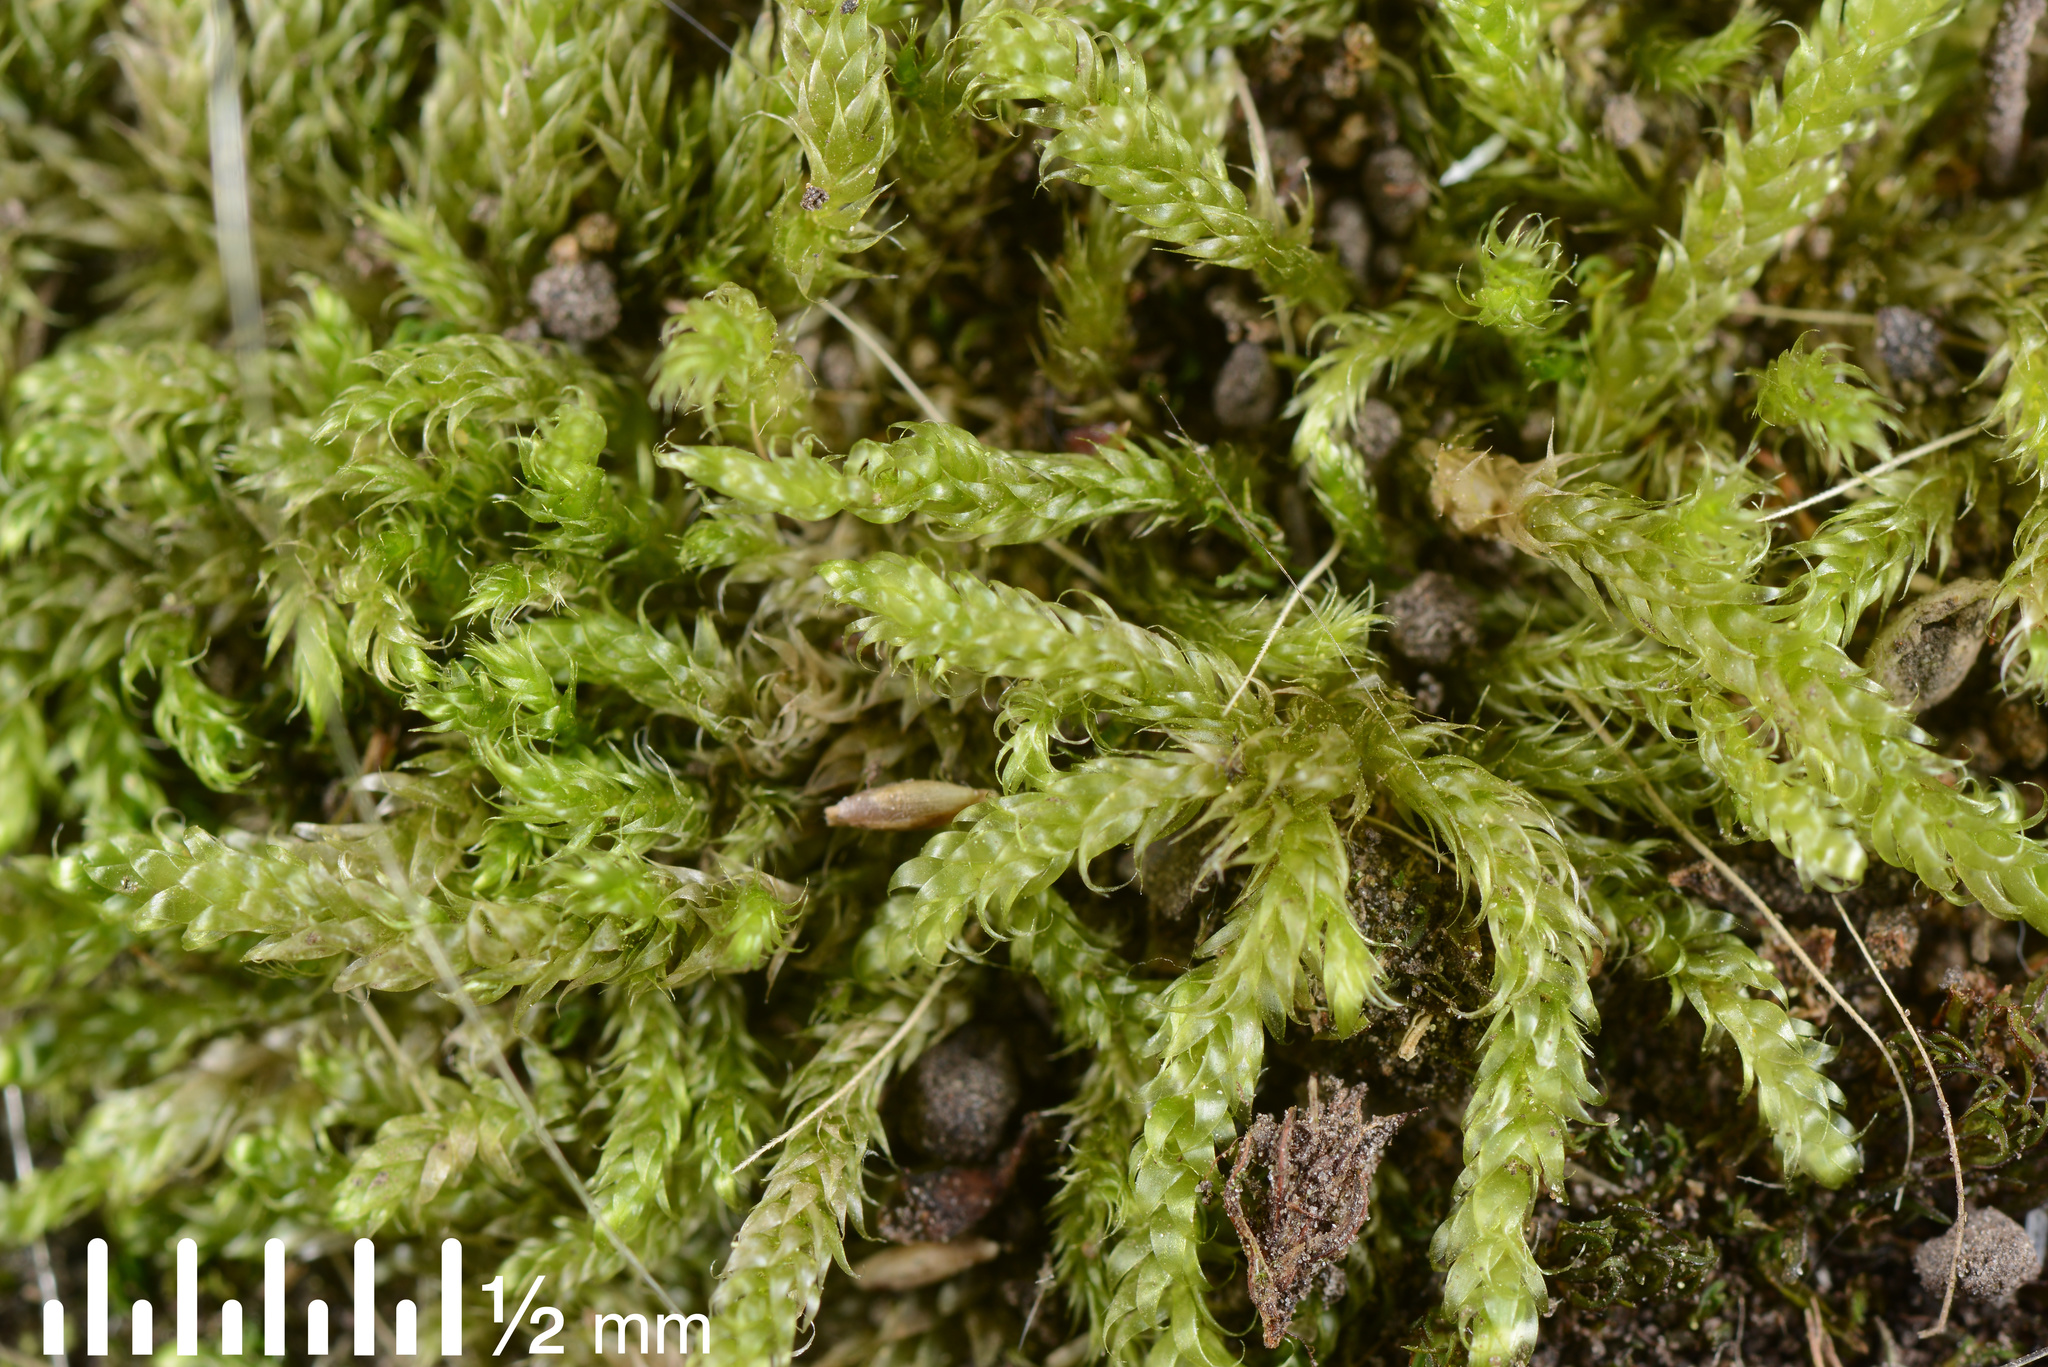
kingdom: Plantae
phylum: Bryophyta
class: Bryopsida
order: Hypnales
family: Hypnaceae
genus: Hypnum
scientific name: Hypnum cupressiforme
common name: Cypress-leaved plait-moss
